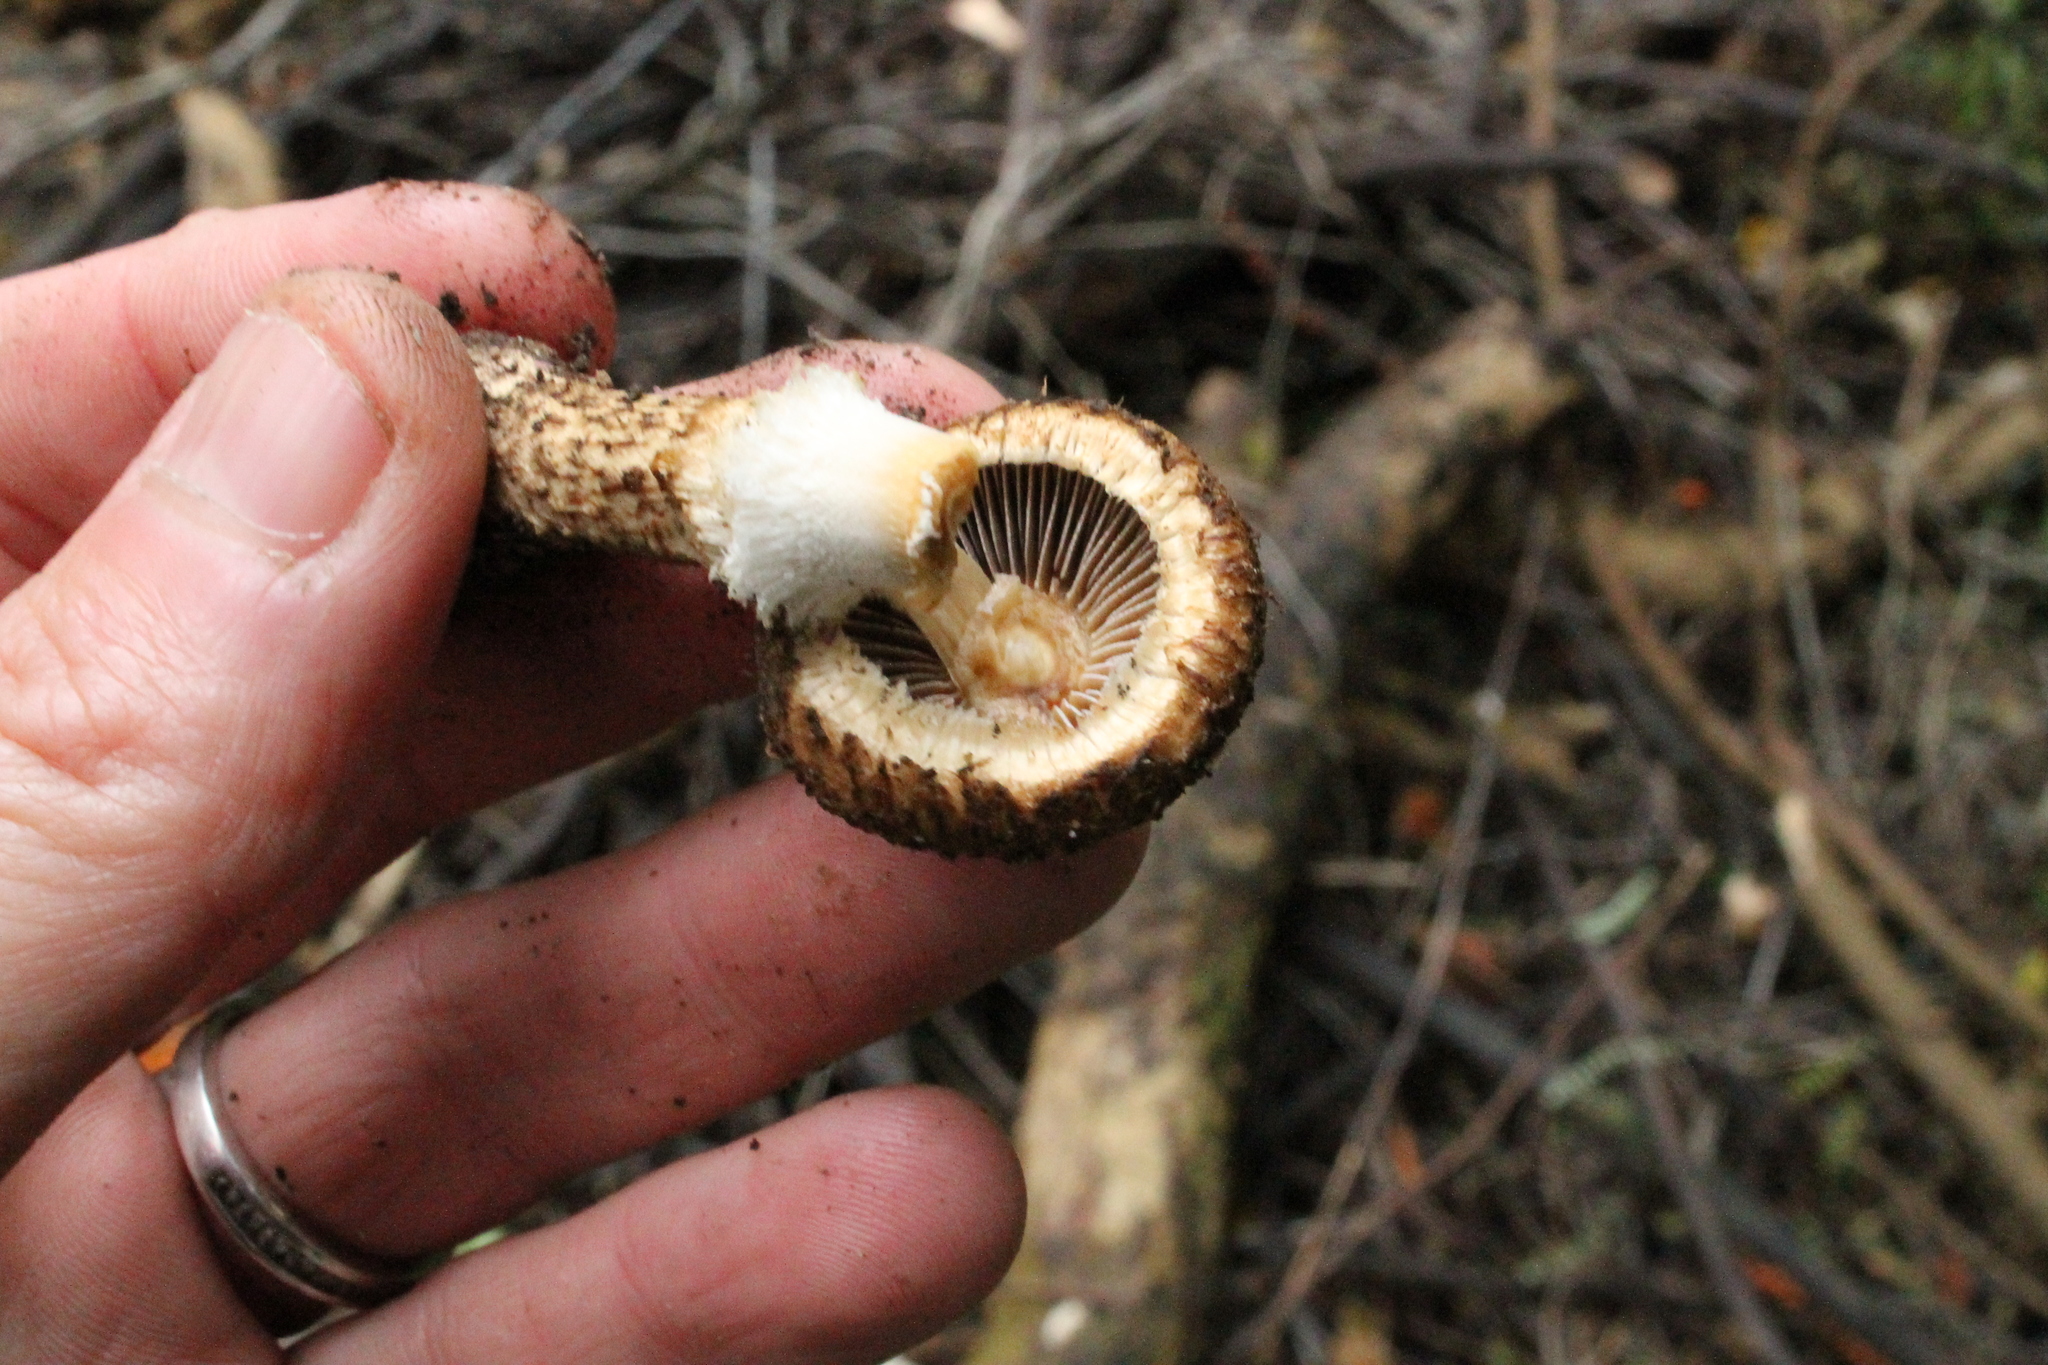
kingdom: Fungi
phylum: Basidiomycota
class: Agaricomycetes
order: Agaricales
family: Psathyrellaceae
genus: Psathyrella
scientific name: Psathyrella asperospora
